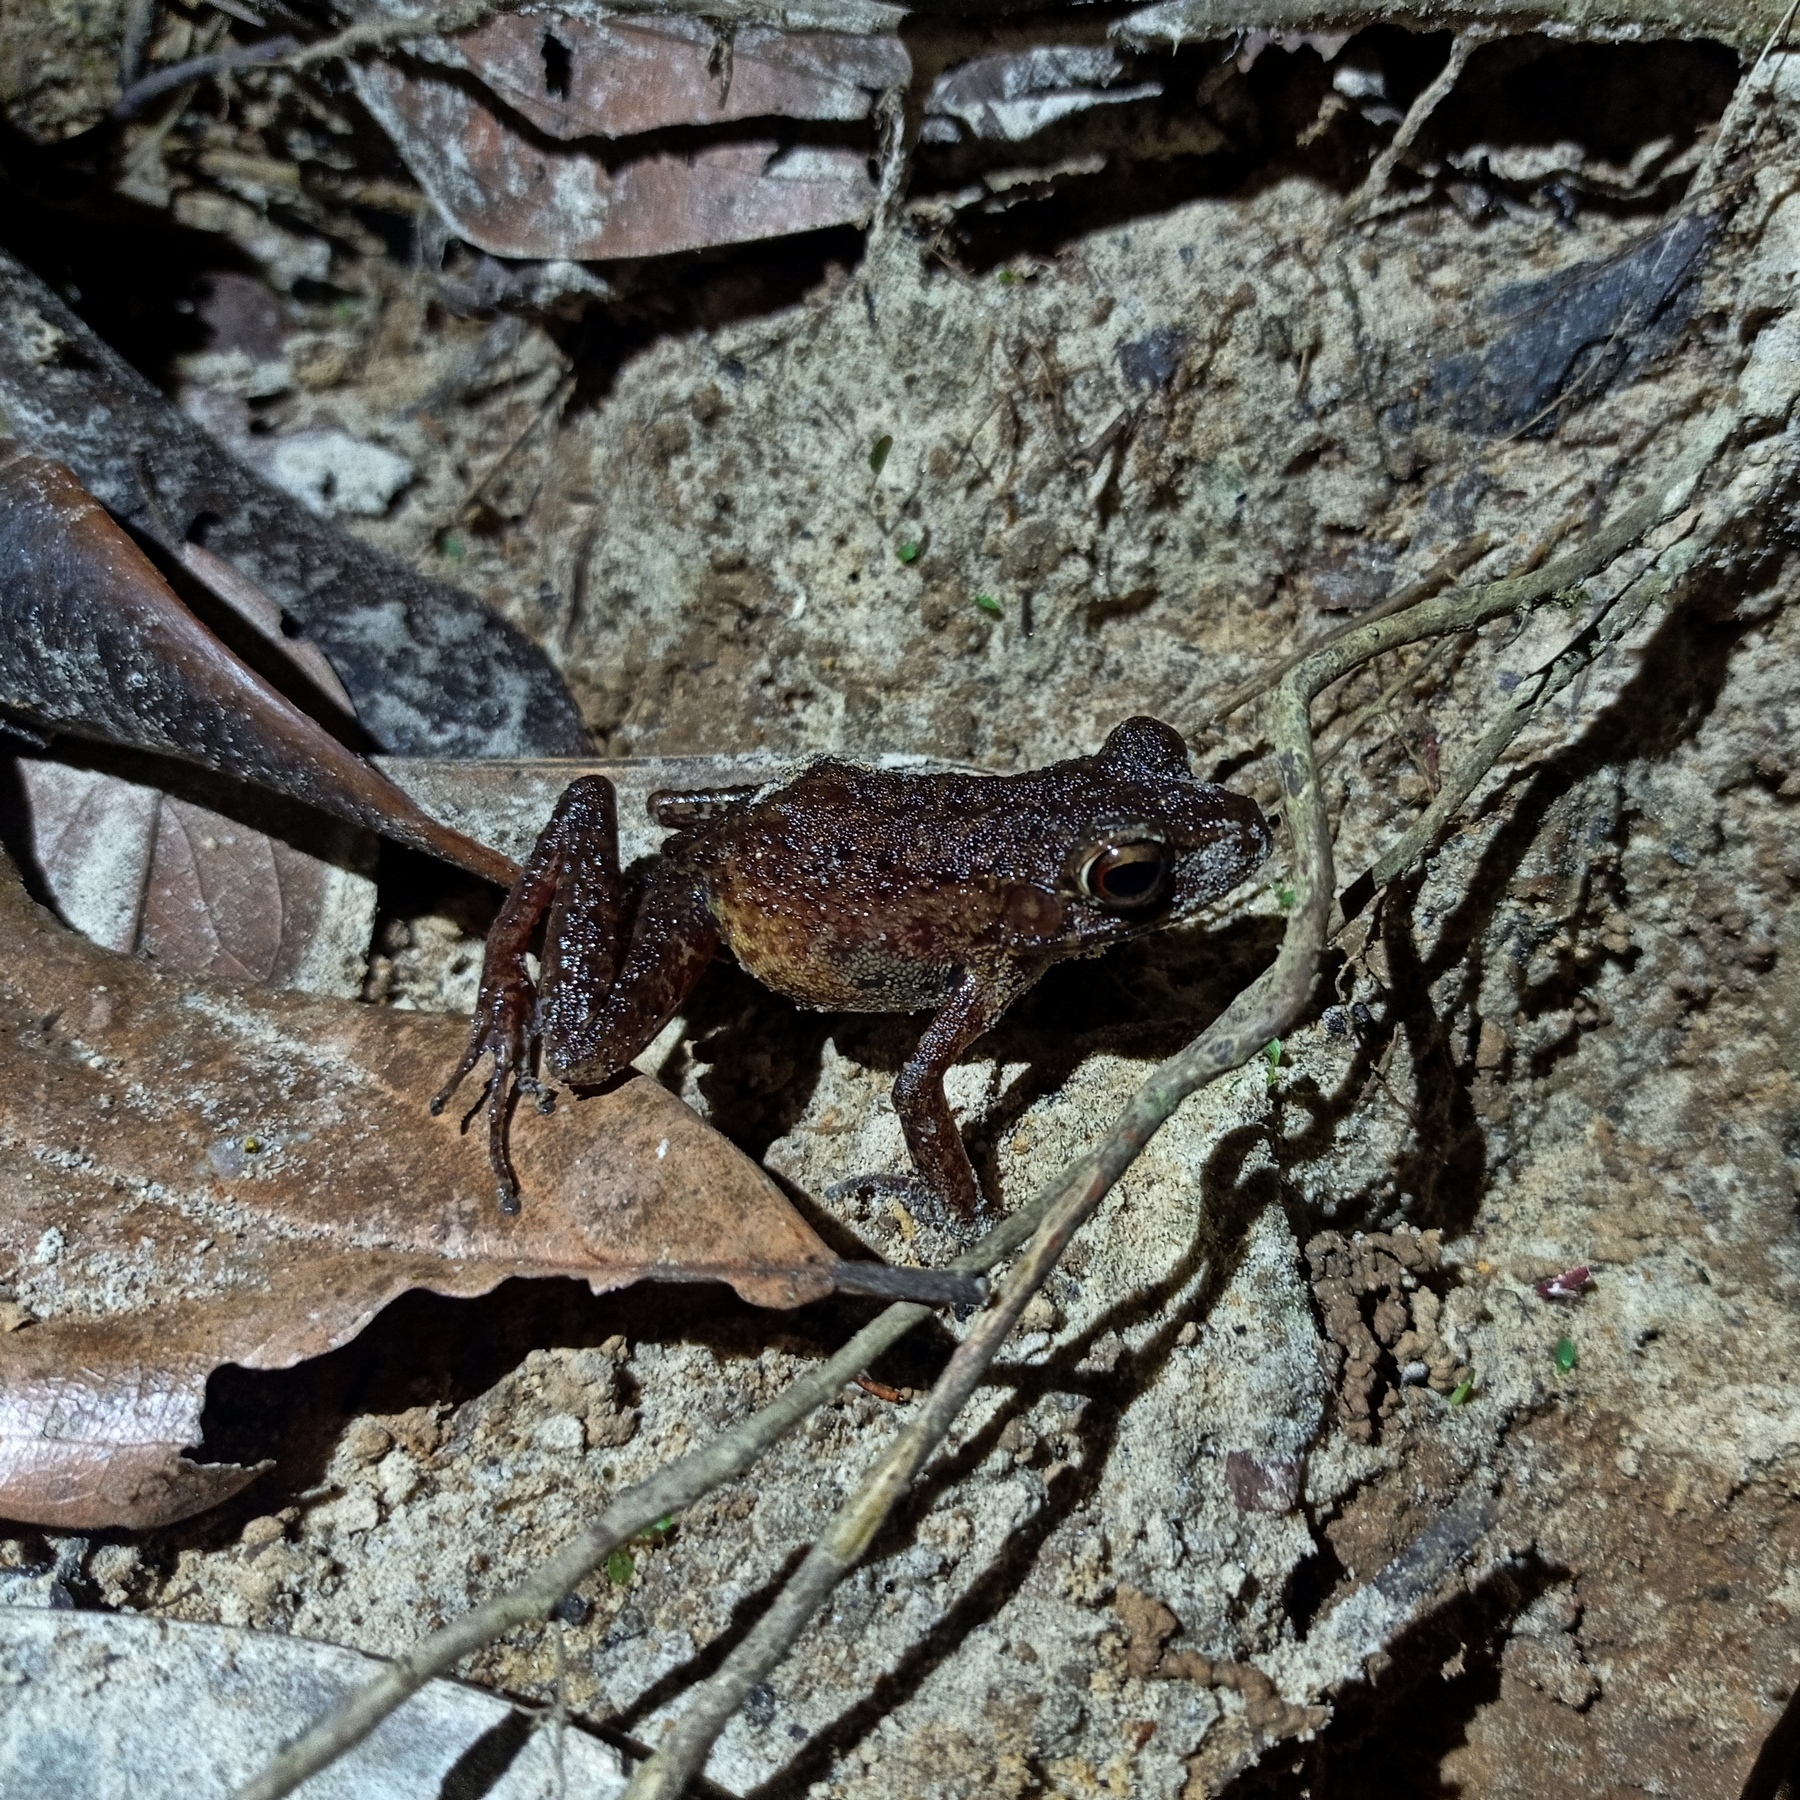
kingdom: Animalia
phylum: Chordata
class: Amphibia
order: Anura
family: Ranidae
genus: Pulchrana
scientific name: Pulchrana baramica
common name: Baram river frog
